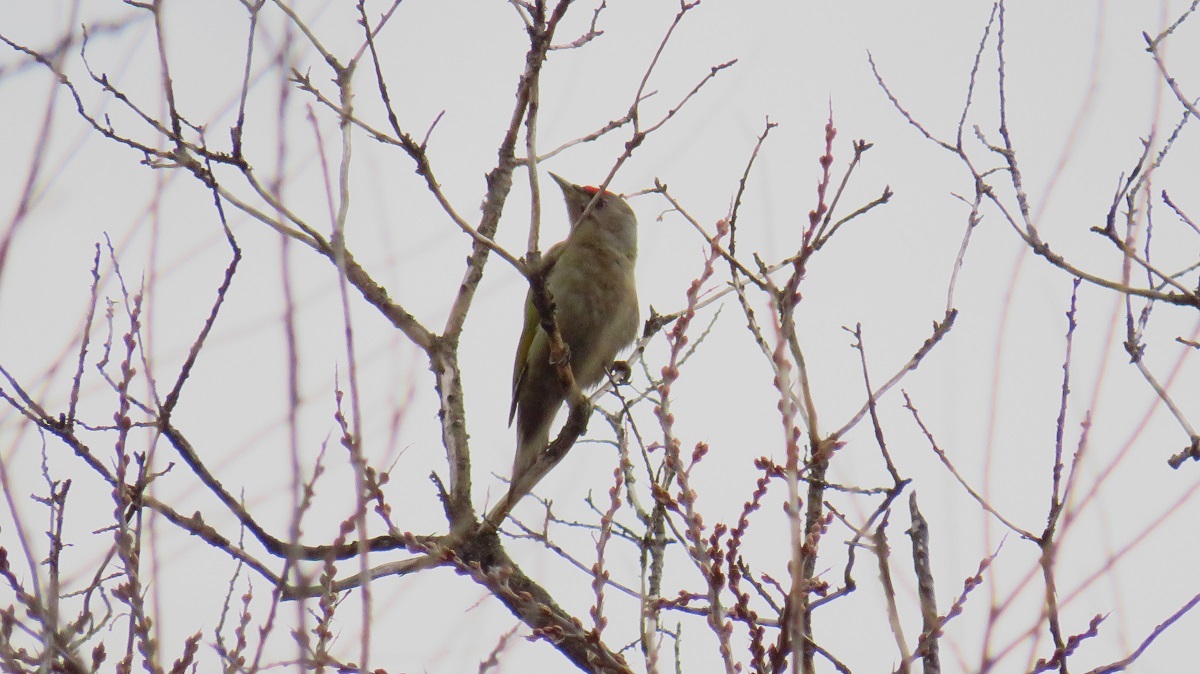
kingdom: Animalia
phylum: Chordata
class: Aves
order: Piciformes
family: Picidae
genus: Picus
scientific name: Picus canus
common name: Grey-headed woodpecker
